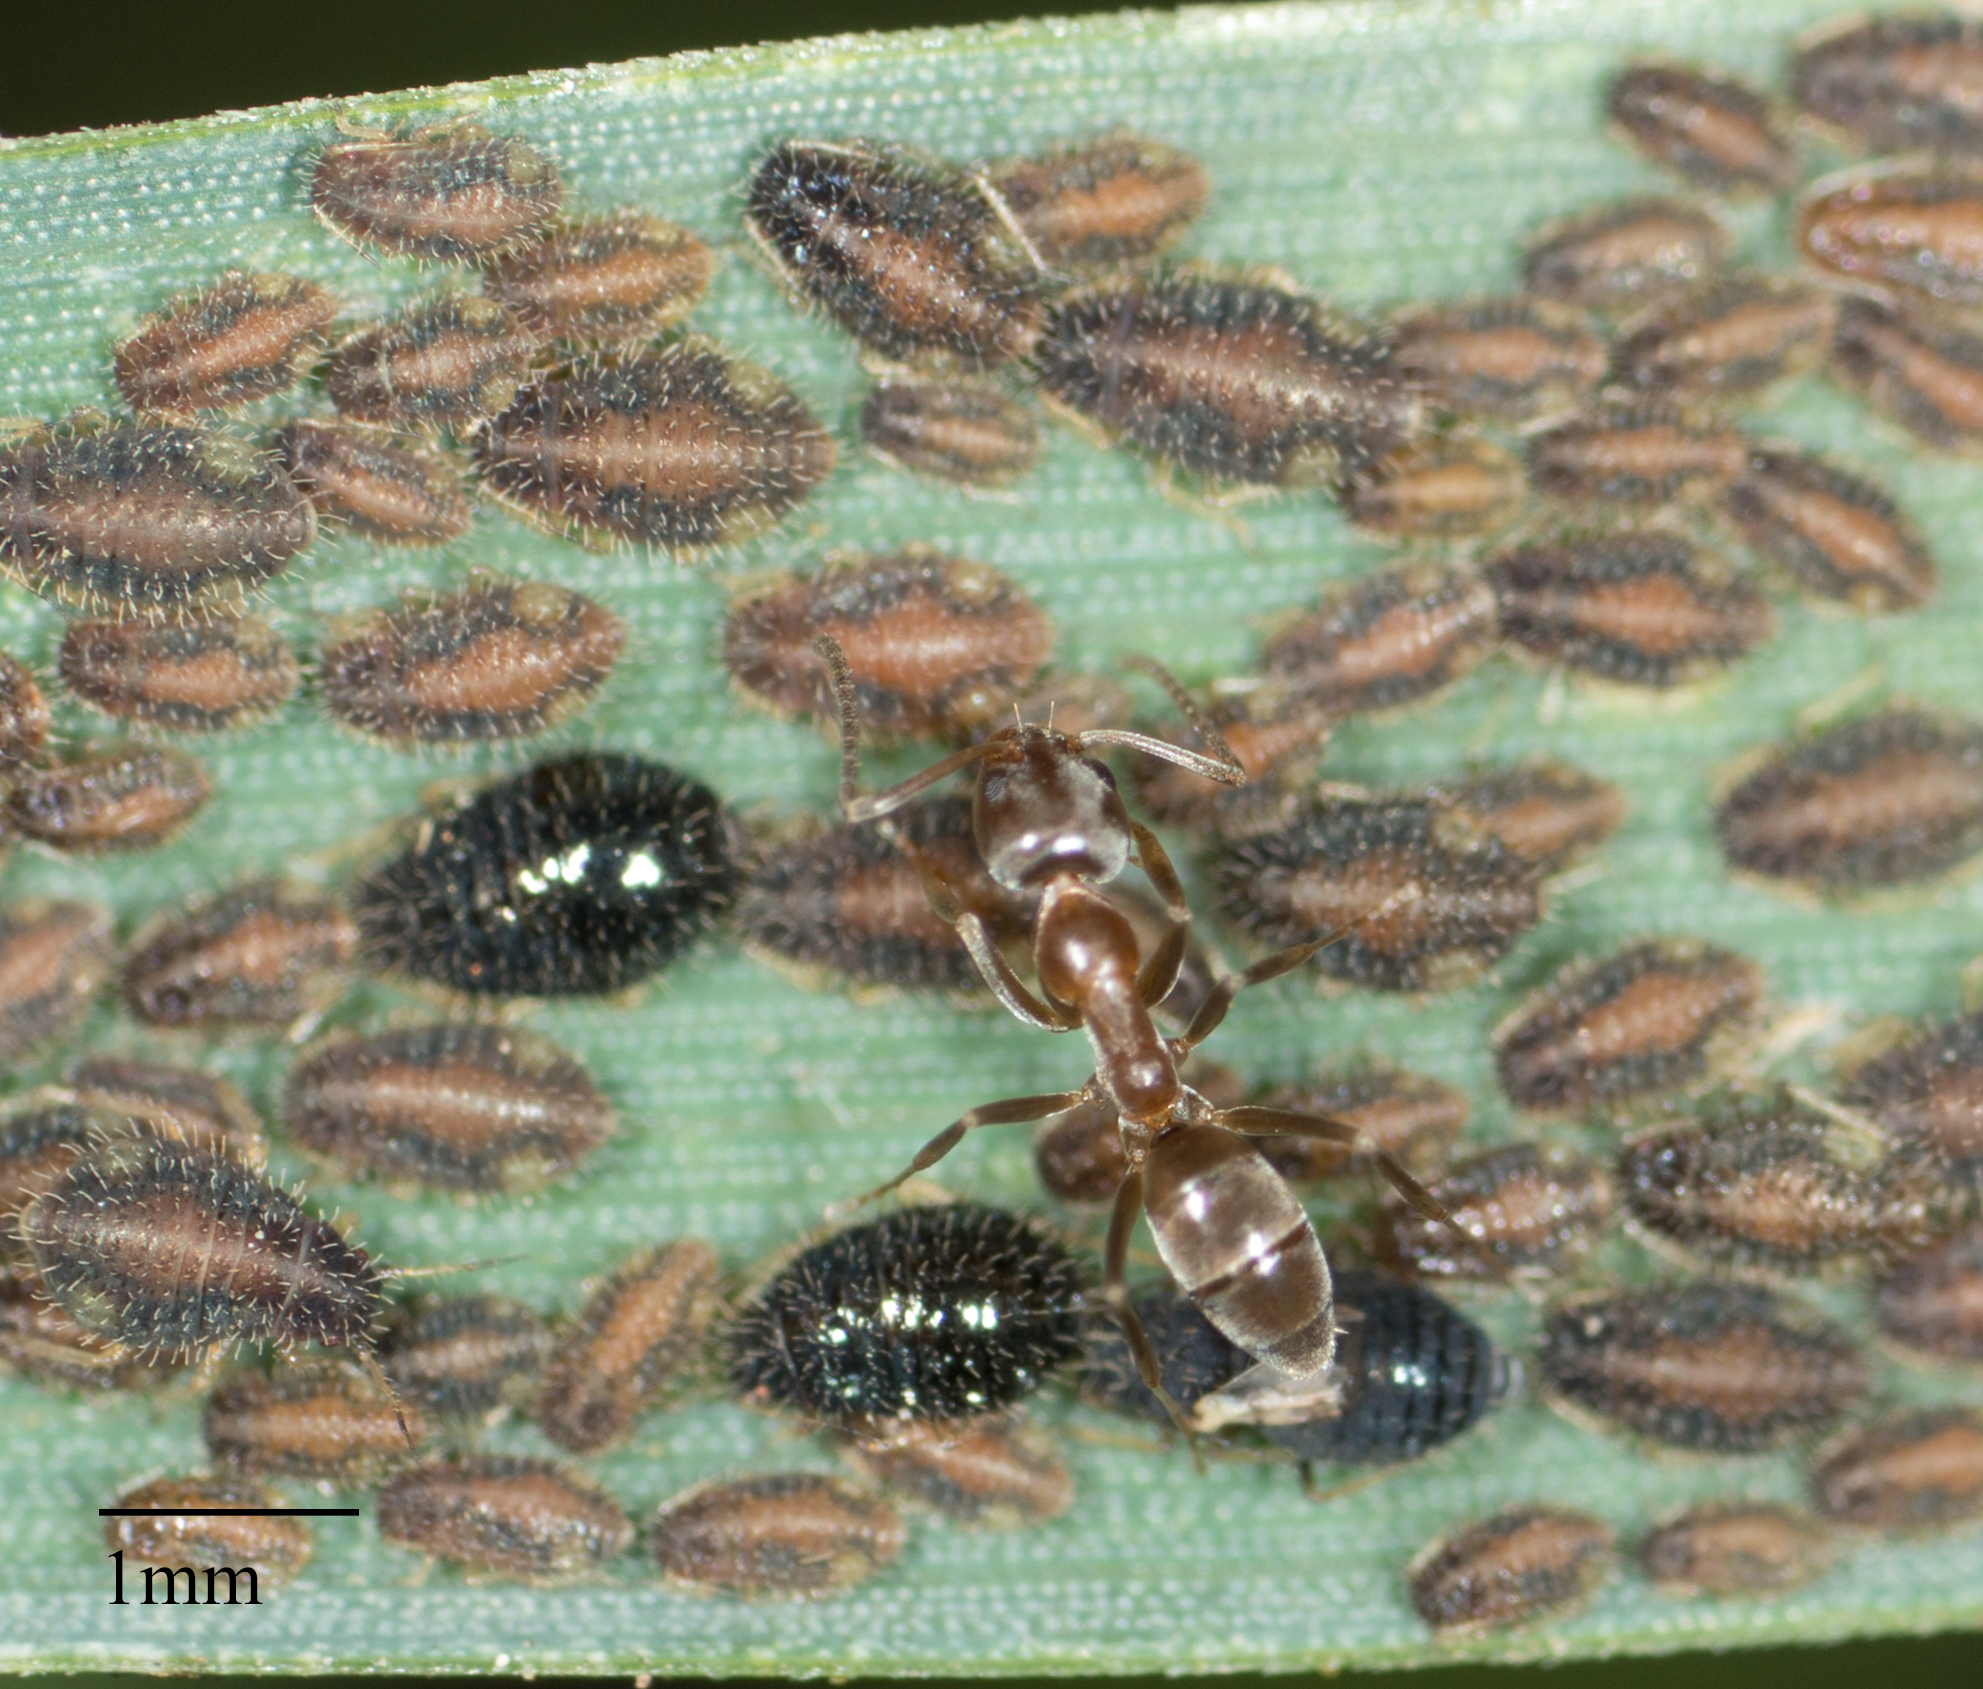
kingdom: Animalia
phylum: Arthropoda
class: Insecta
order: Hymenoptera
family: Formicidae
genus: Linepithema
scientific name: Linepithema humile
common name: Argentine ant
